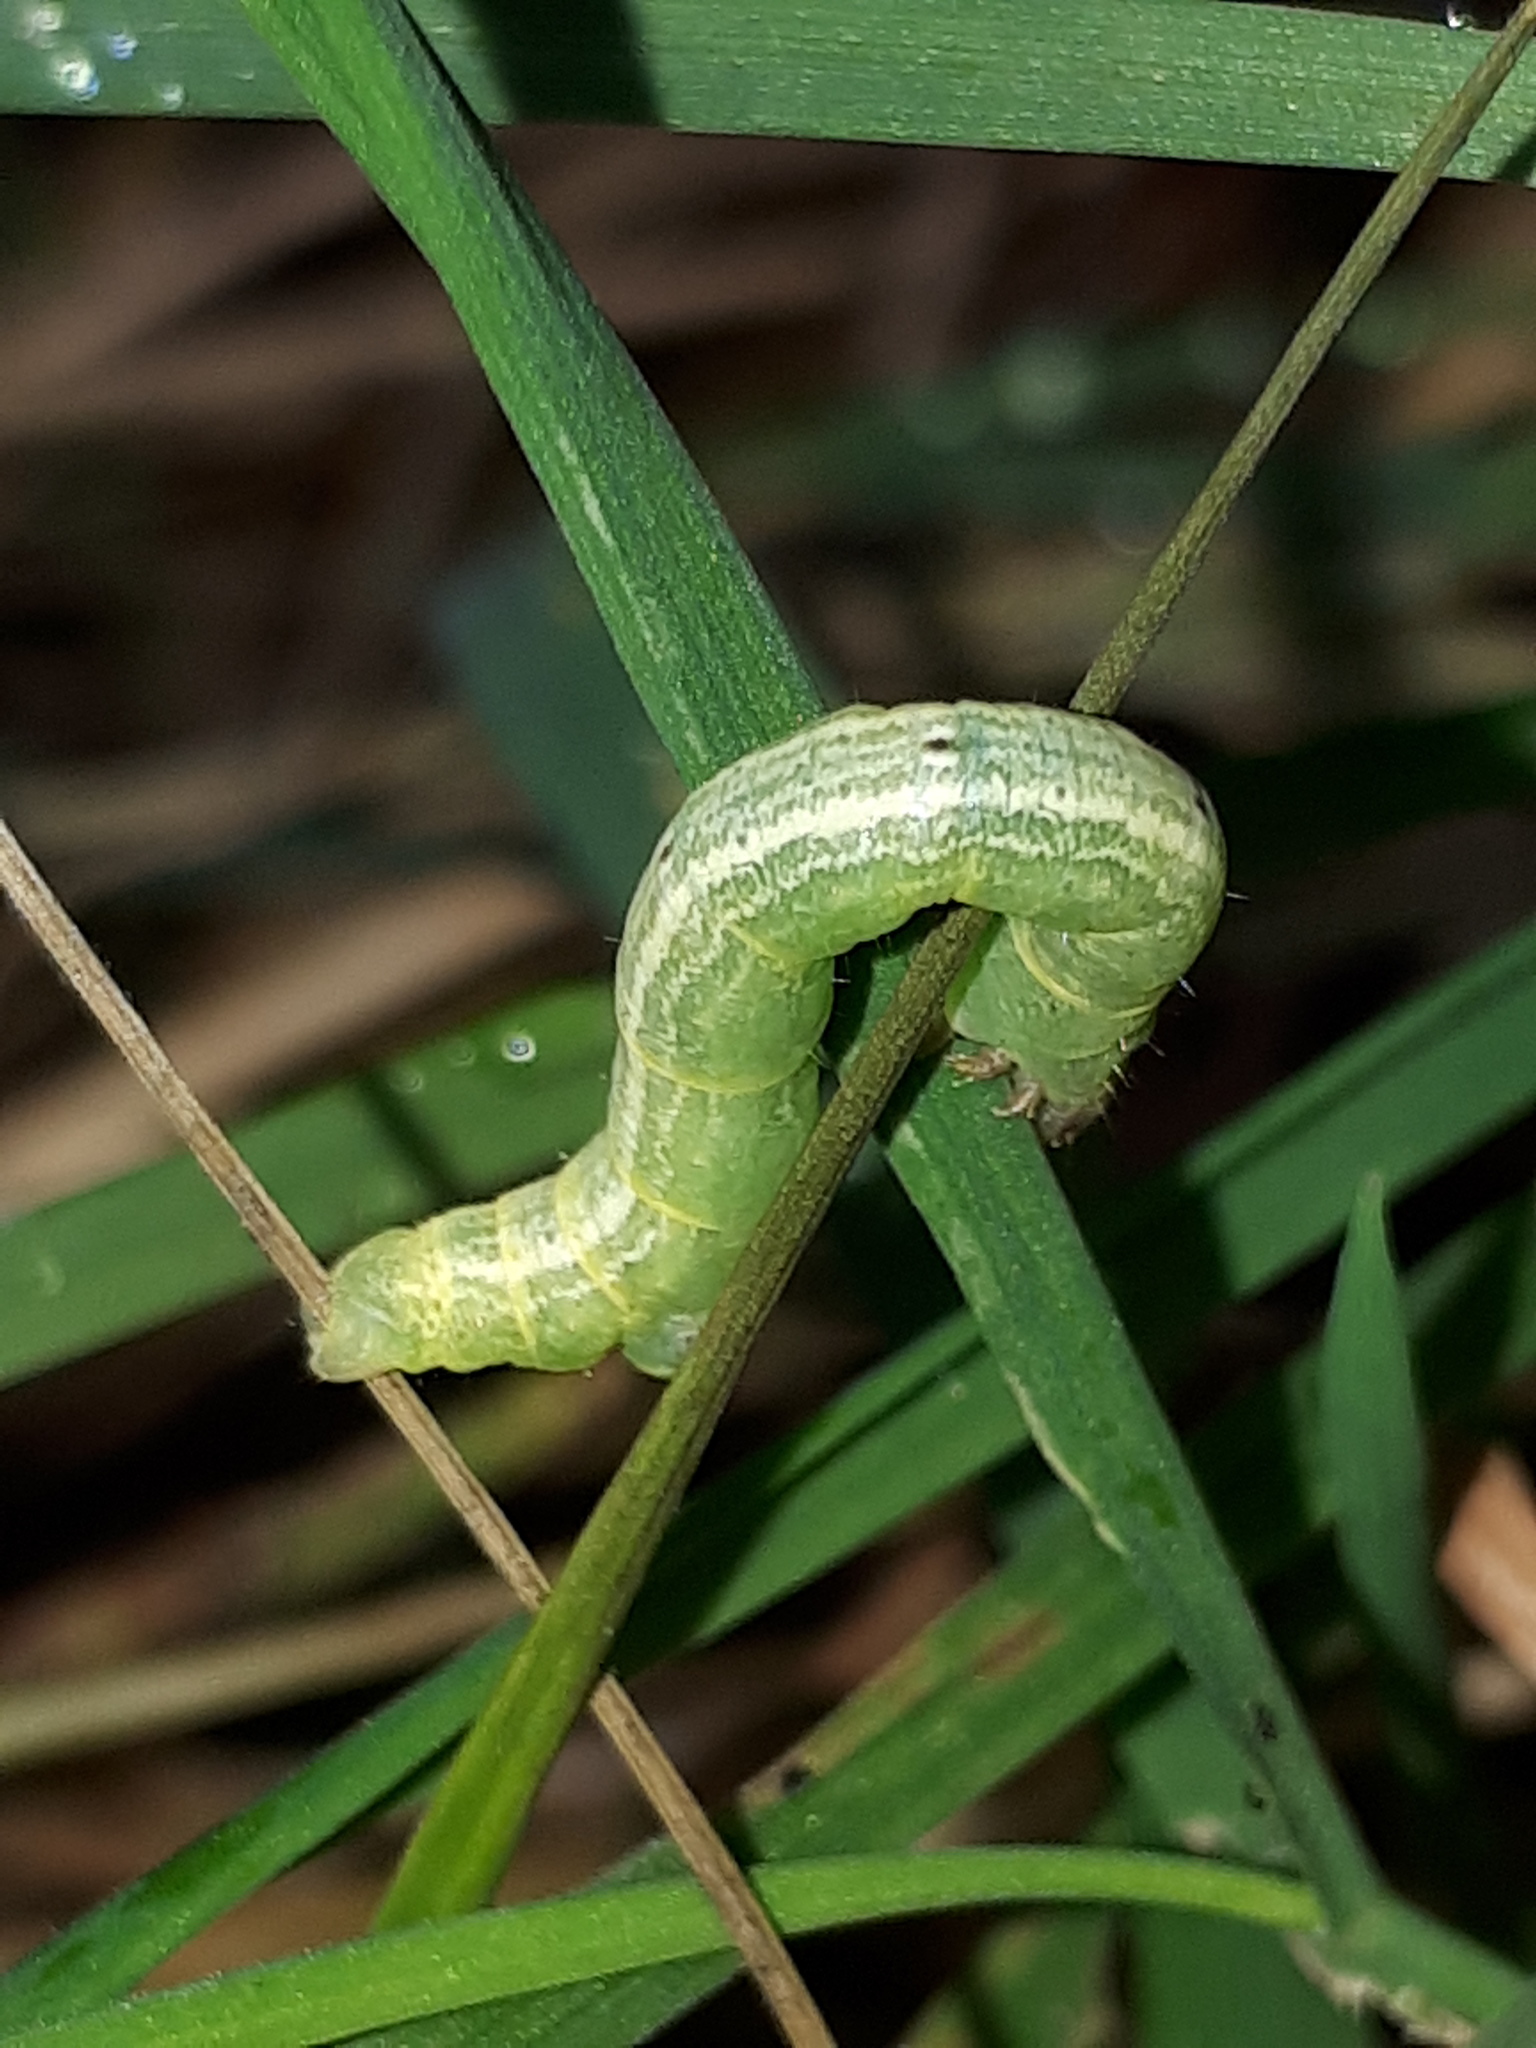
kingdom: Animalia
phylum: Arthropoda
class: Insecta
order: Lepidoptera
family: Geometridae
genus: Cabera
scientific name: Cabera exanthemata
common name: Common wave
